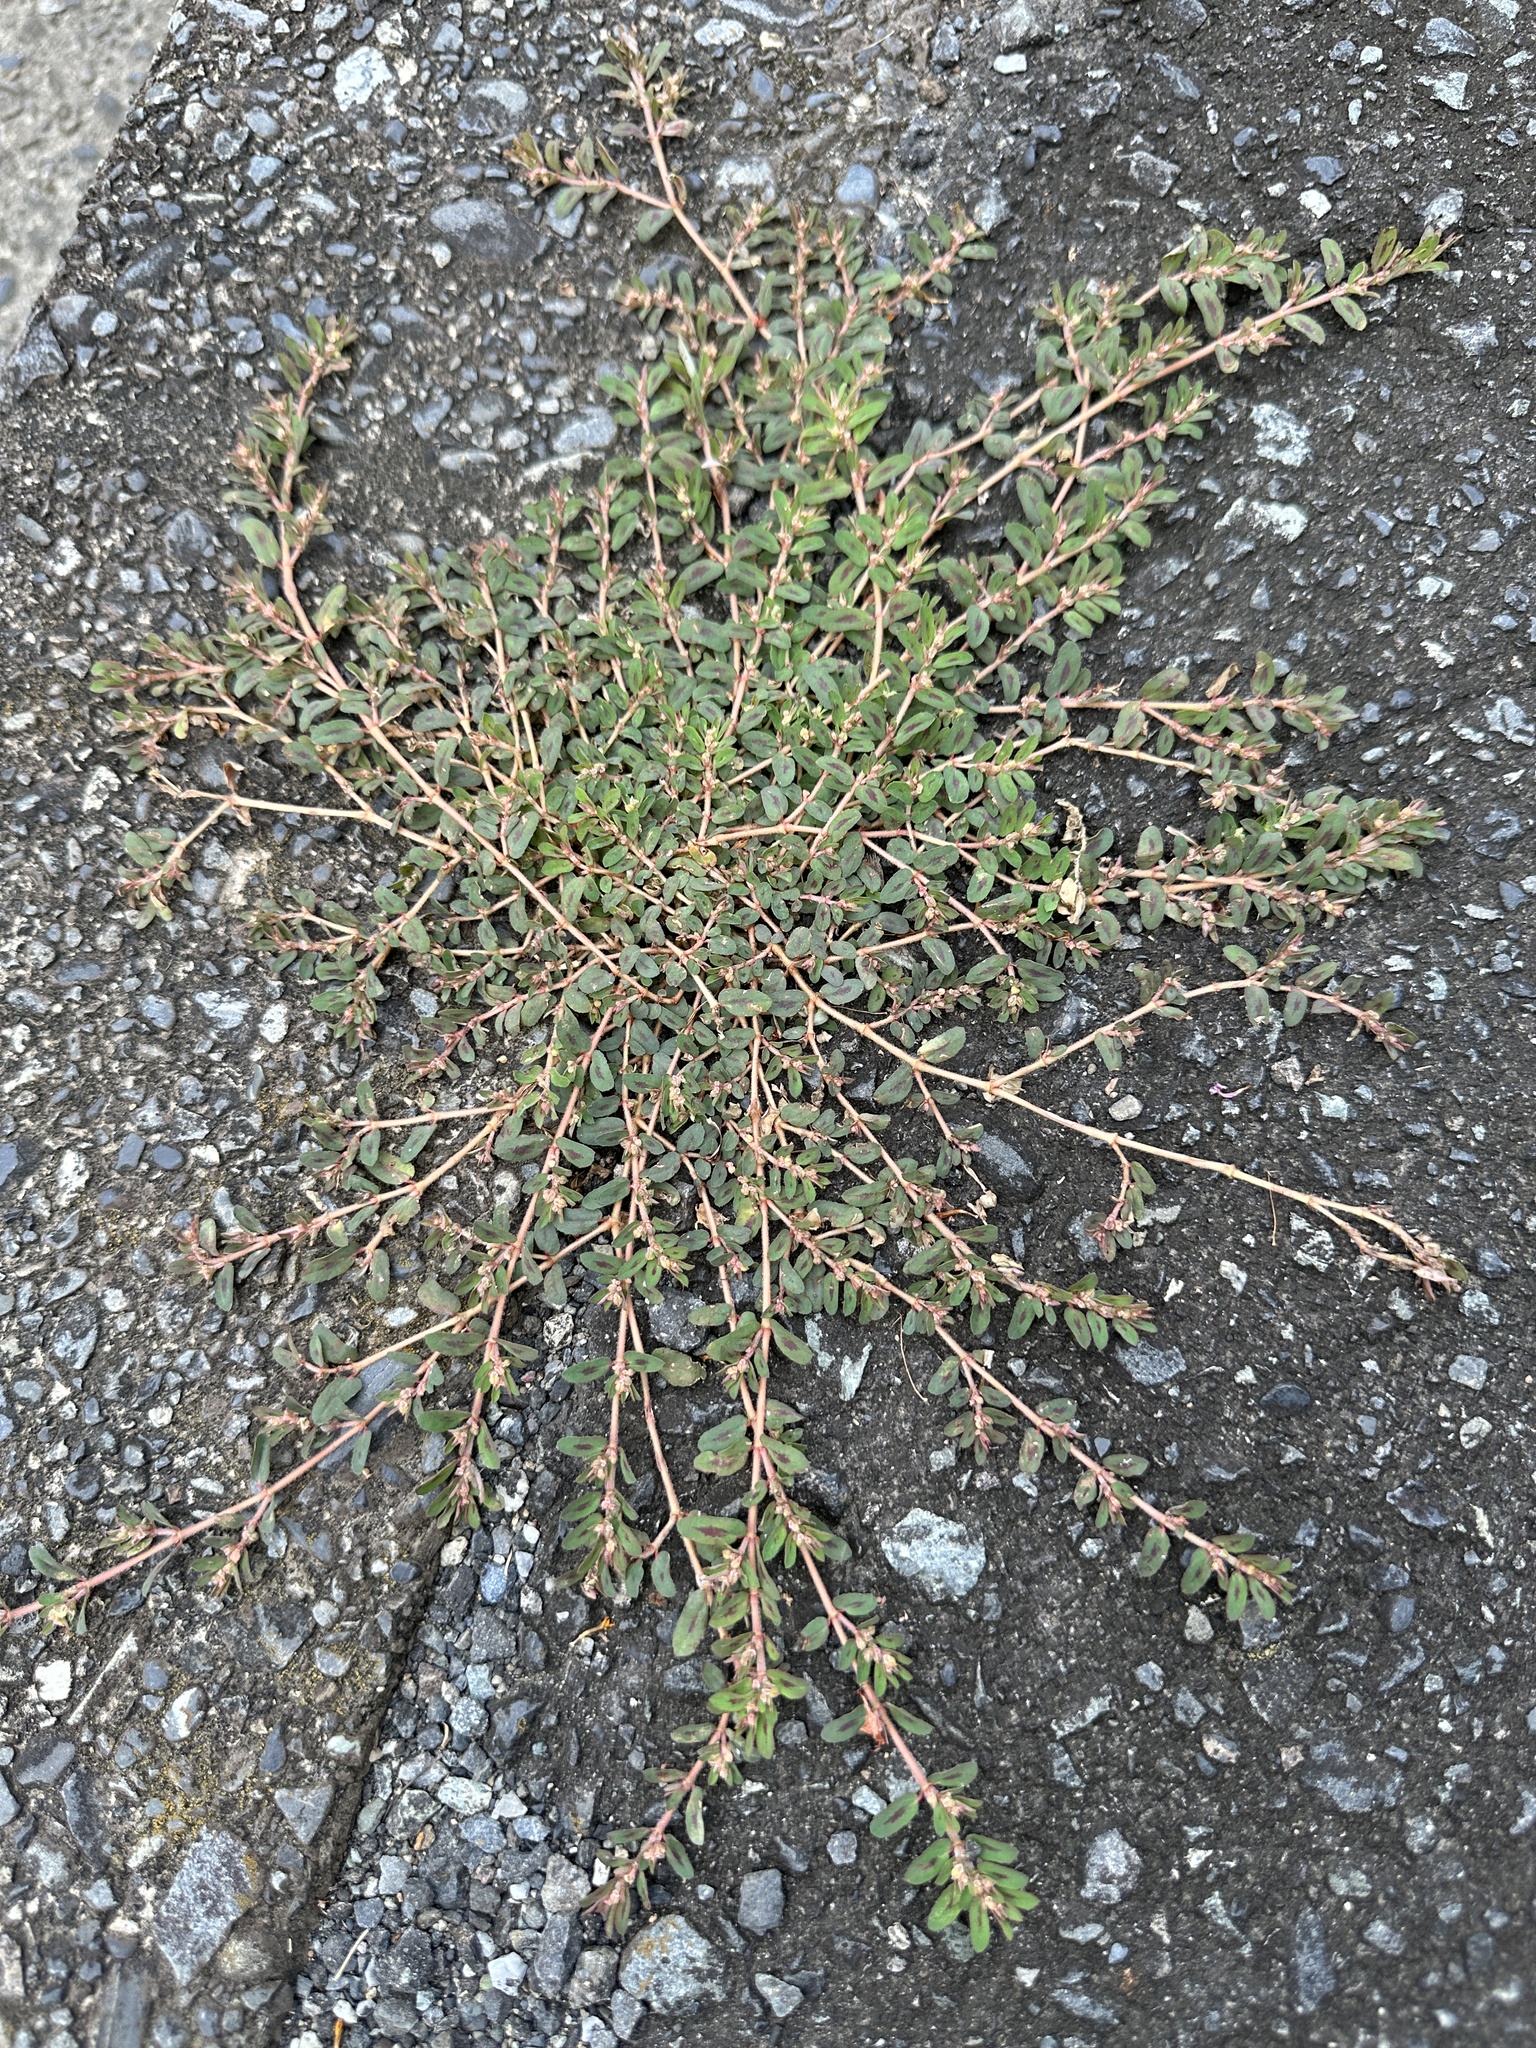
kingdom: Plantae
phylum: Tracheophyta
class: Magnoliopsida
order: Malpighiales
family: Euphorbiaceae
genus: Euphorbia
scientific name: Euphorbia maculata
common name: Spotted spurge
